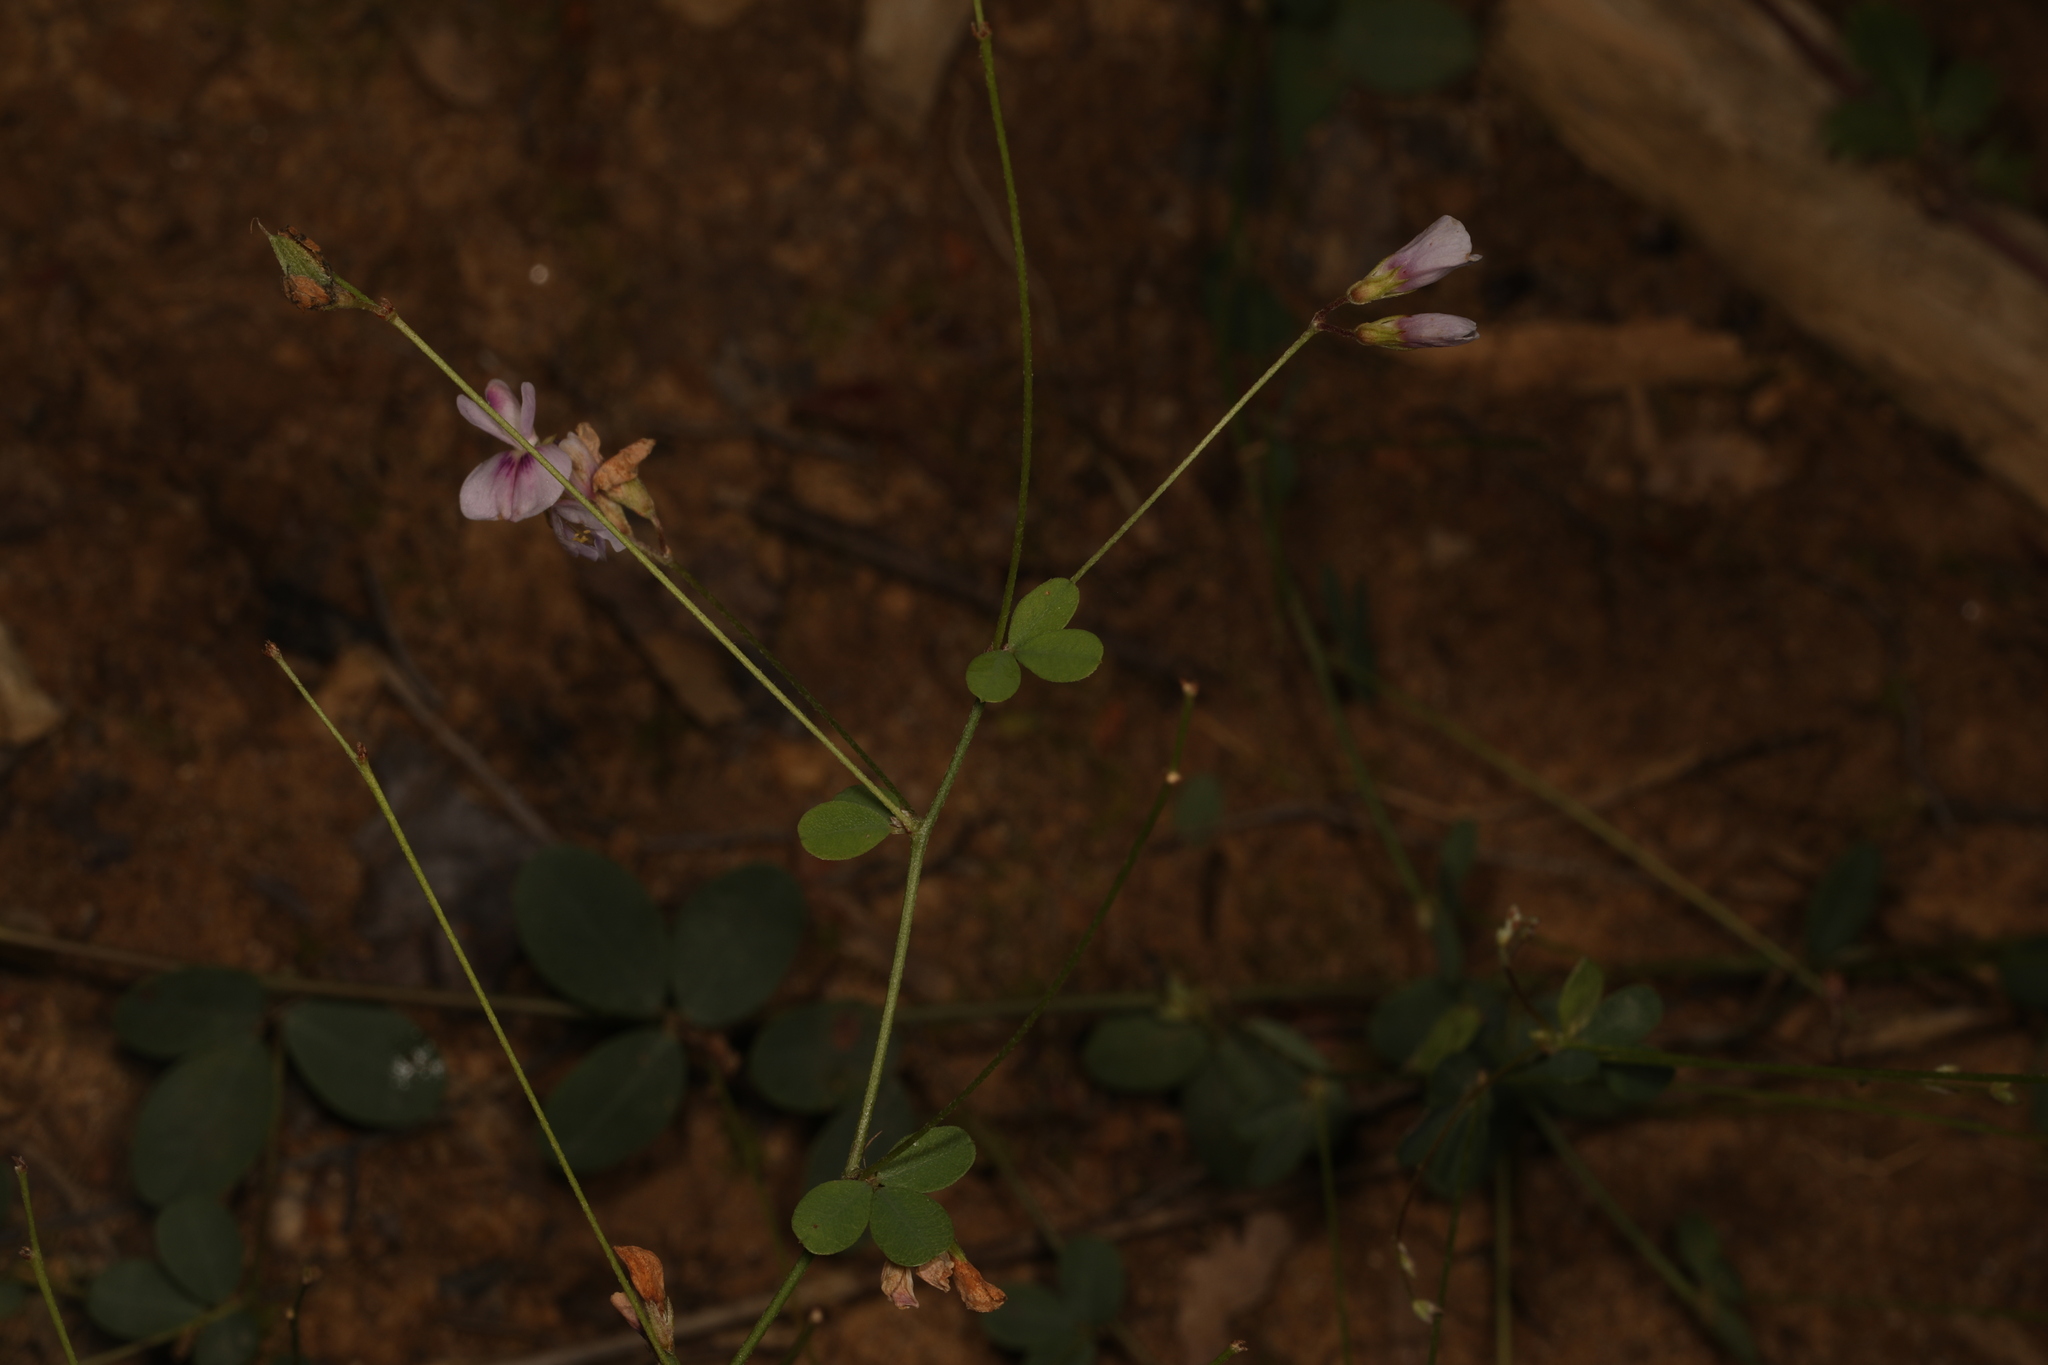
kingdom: Plantae
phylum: Tracheophyta
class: Magnoliopsida
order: Fabales
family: Fabaceae
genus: Lespedeza
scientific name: Lespedeza repens
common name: Creeping bush-clover
